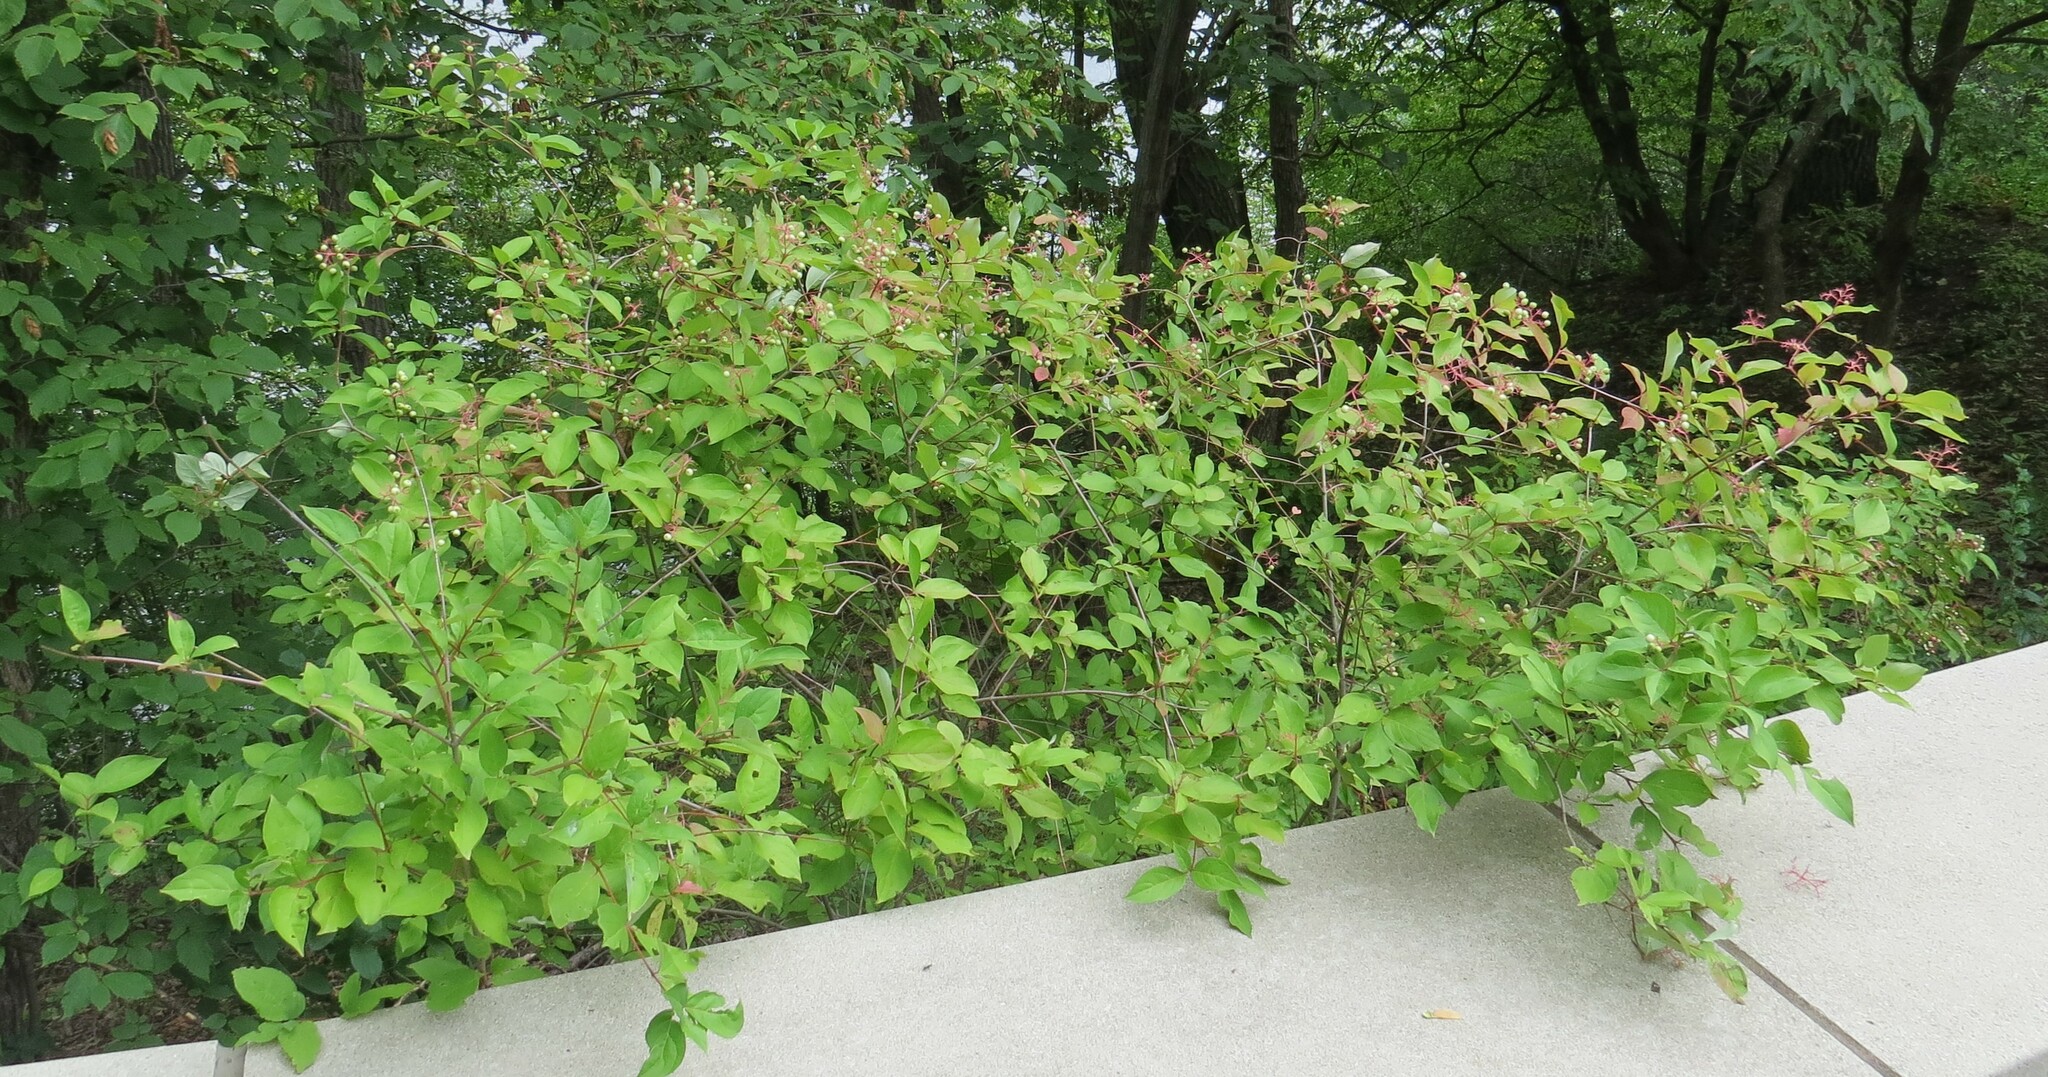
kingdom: Plantae
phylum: Tracheophyta
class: Magnoliopsida
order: Cornales
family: Cornaceae
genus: Cornus
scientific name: Cornus racemosa
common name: Panicled dogwood
